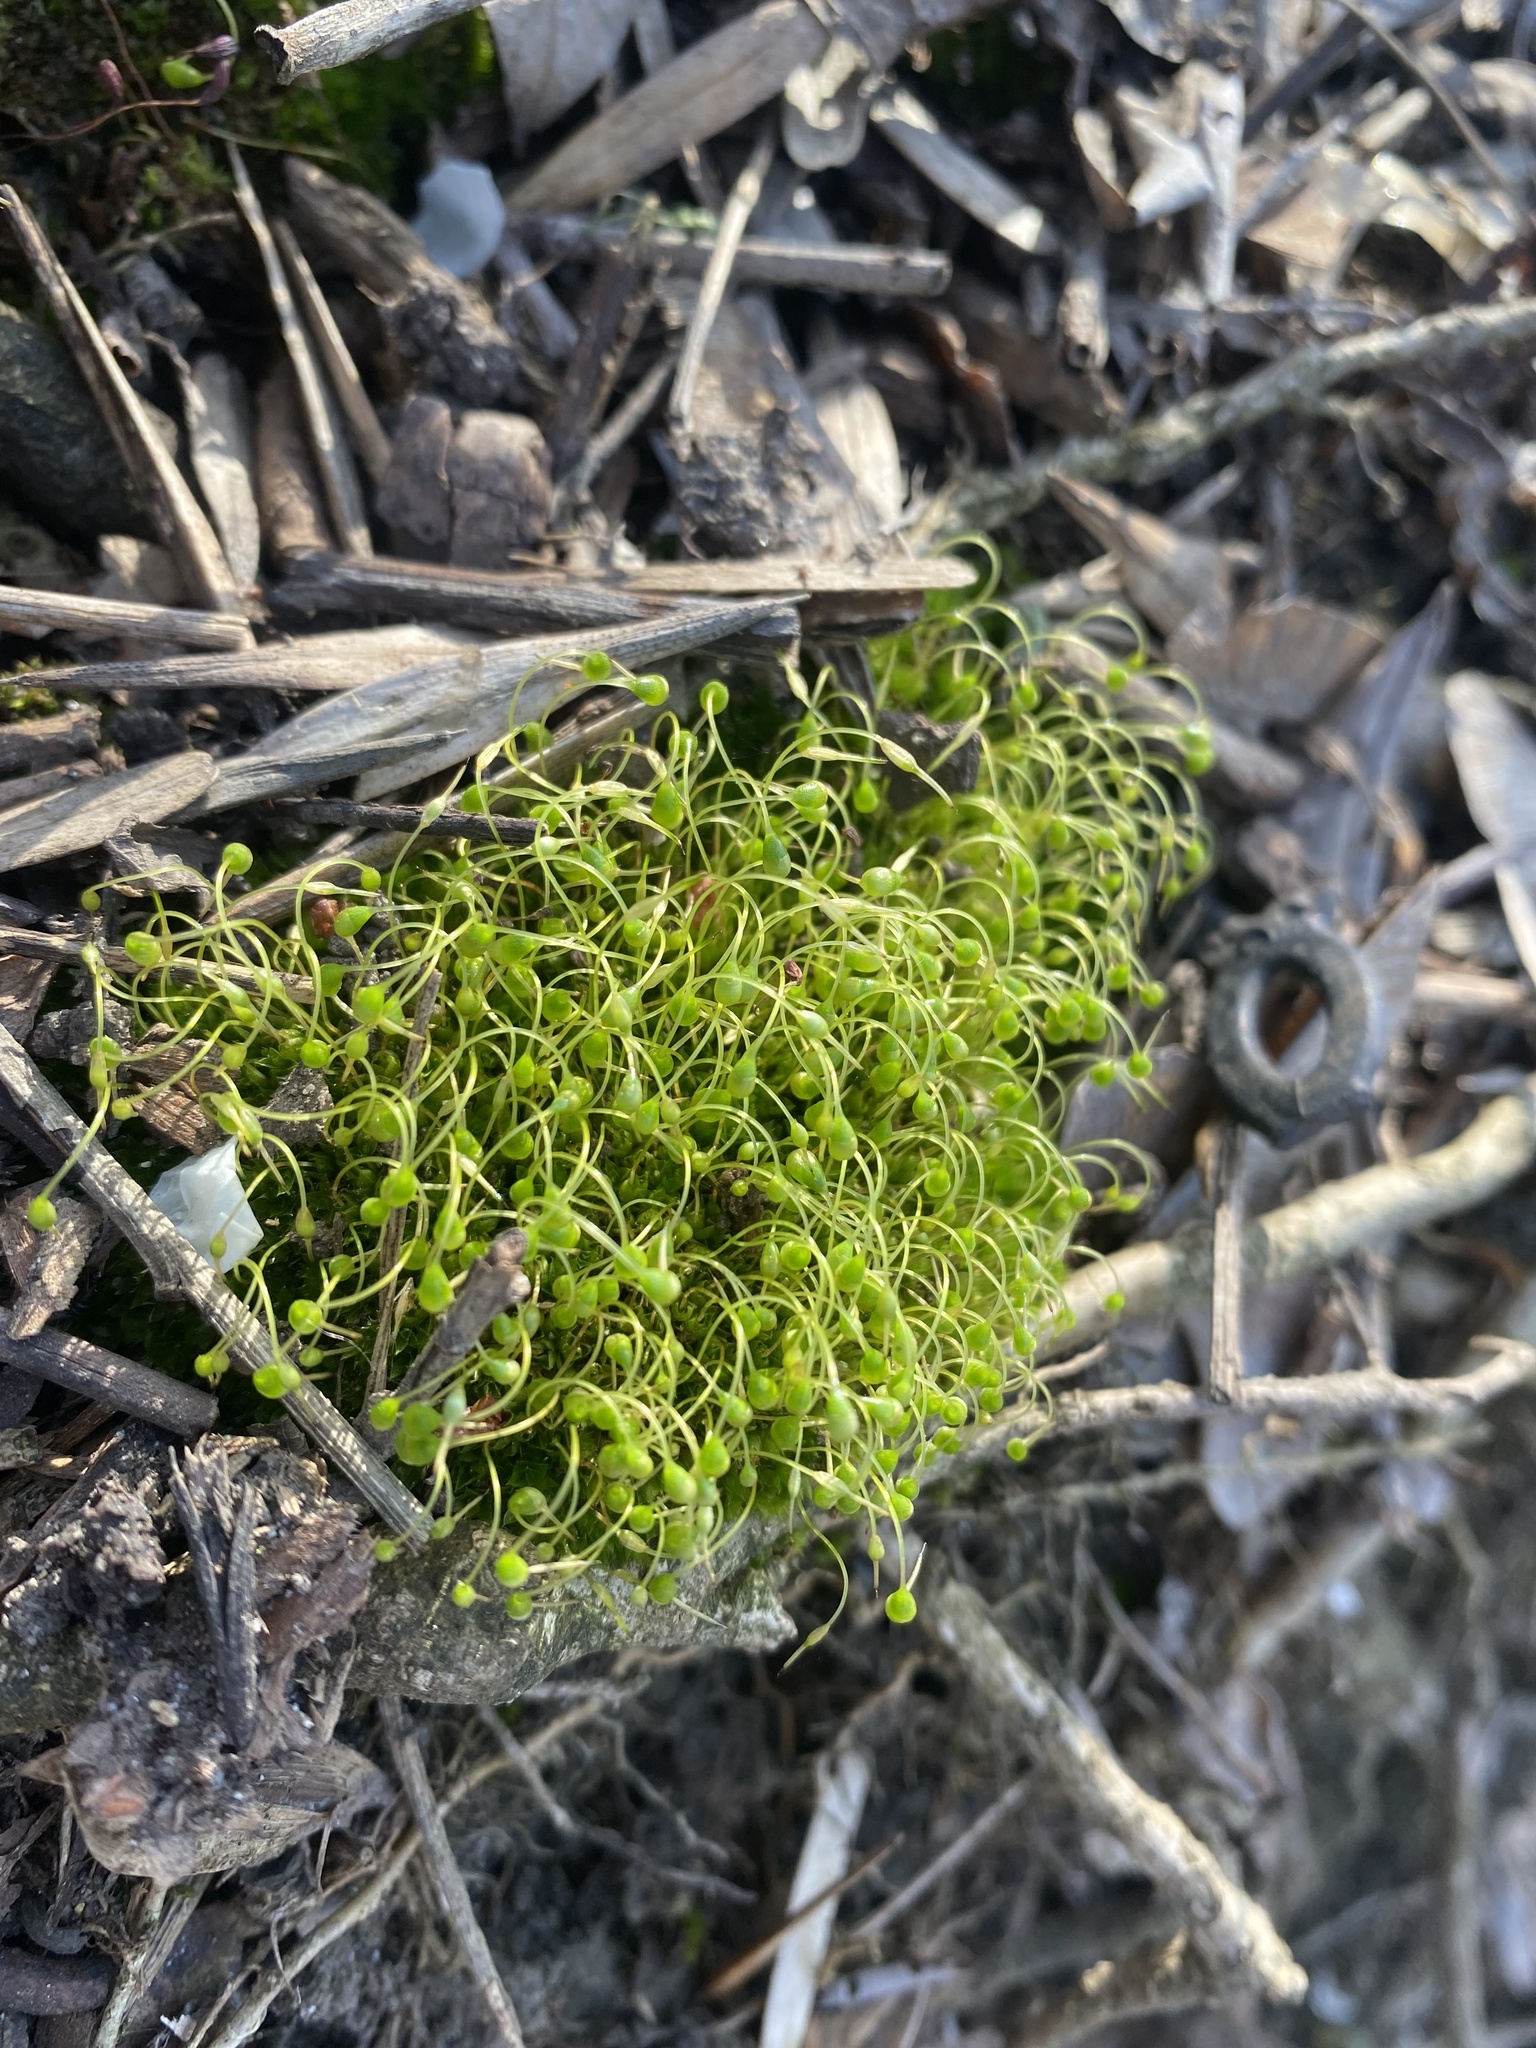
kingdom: Plantae
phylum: Bryophyta
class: Bryopsida
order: Funariales
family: Funariaceae
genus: Funaria
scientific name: Funaria hygrometrica
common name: Common cord moss
